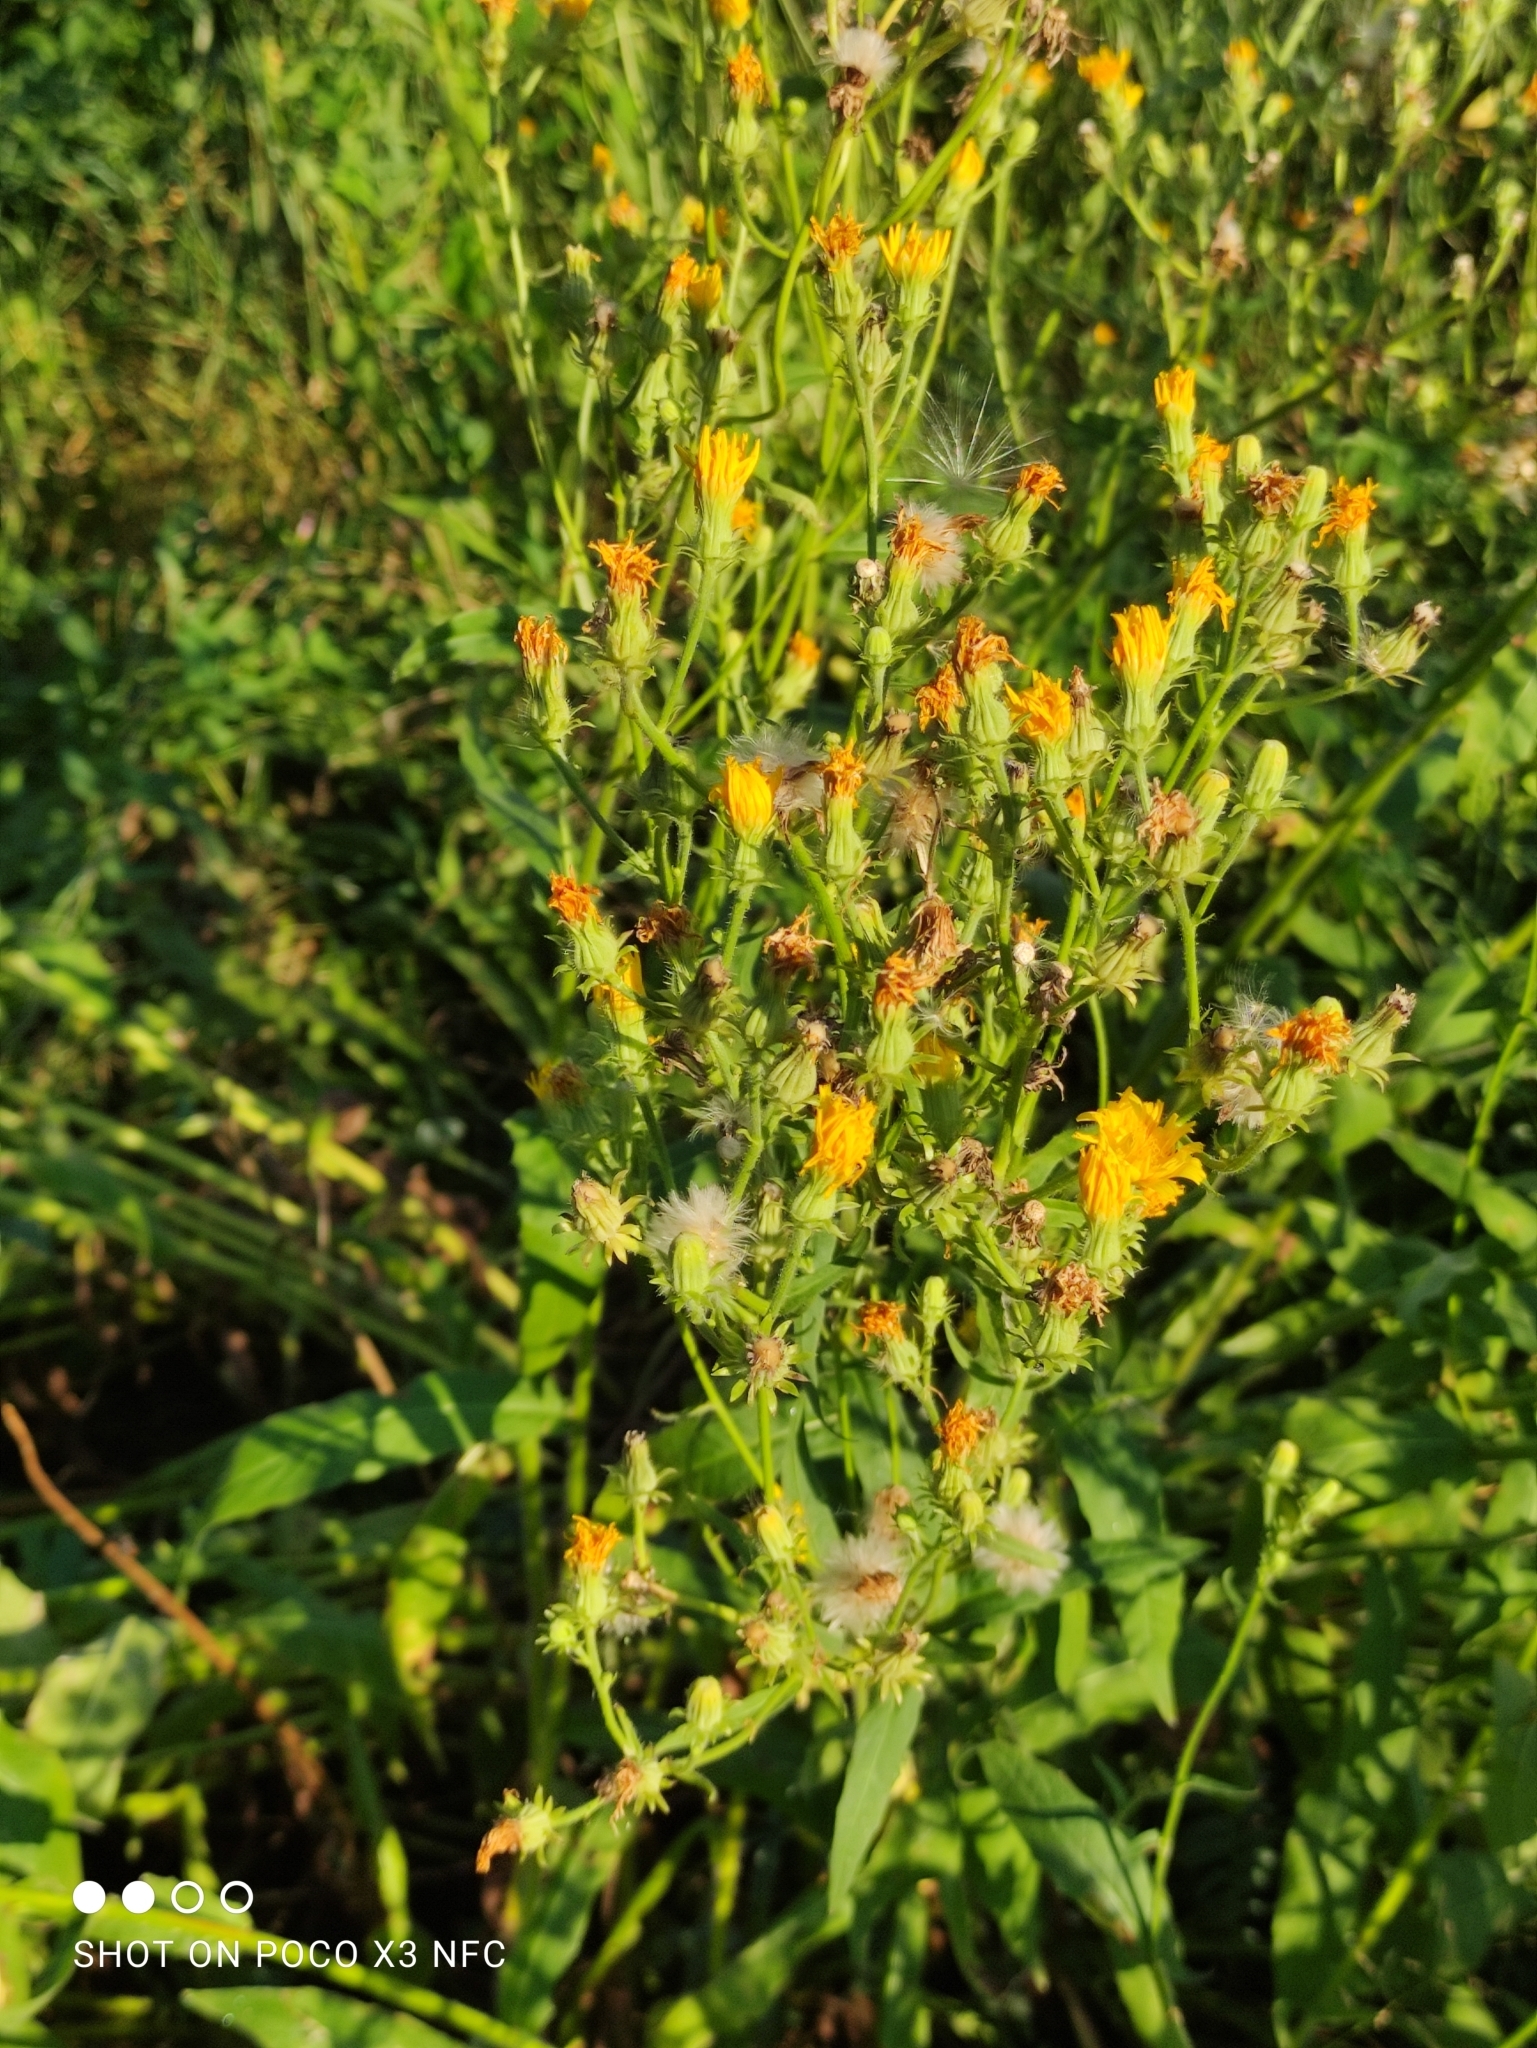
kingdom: Plantae
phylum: Tracheophyta
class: Magnoliopsida
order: Asterales
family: Asteraceae
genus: Picris
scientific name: Picris hieracioides
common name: Hawkweed oxtongue
